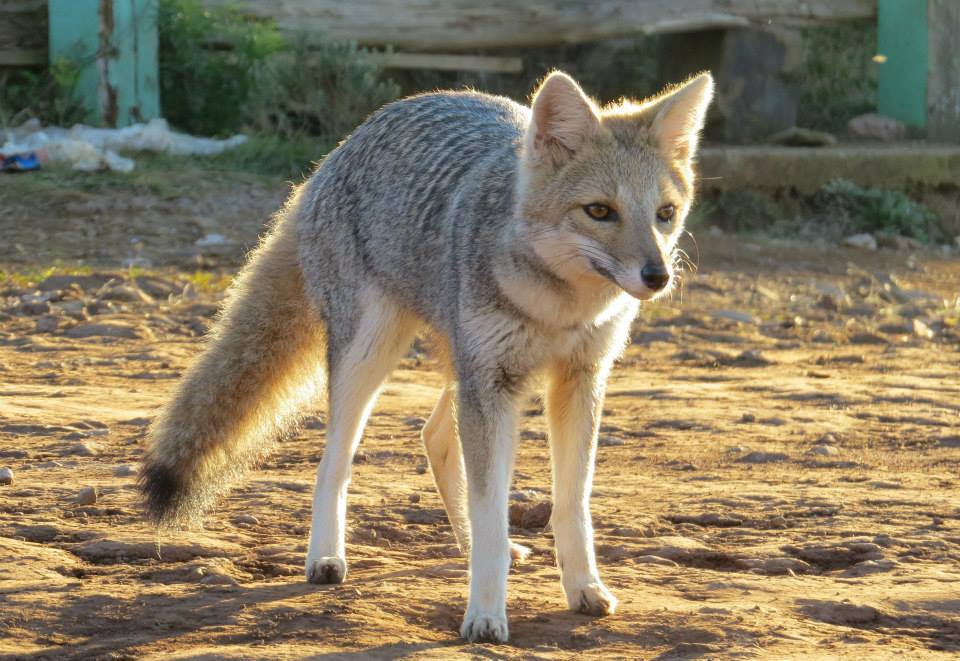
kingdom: Animalia
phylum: Chordata
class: Mammalia
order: Carnivora
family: Canidae
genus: Lycalopex
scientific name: Lycalopex gymnocercus
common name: Pampas fox
